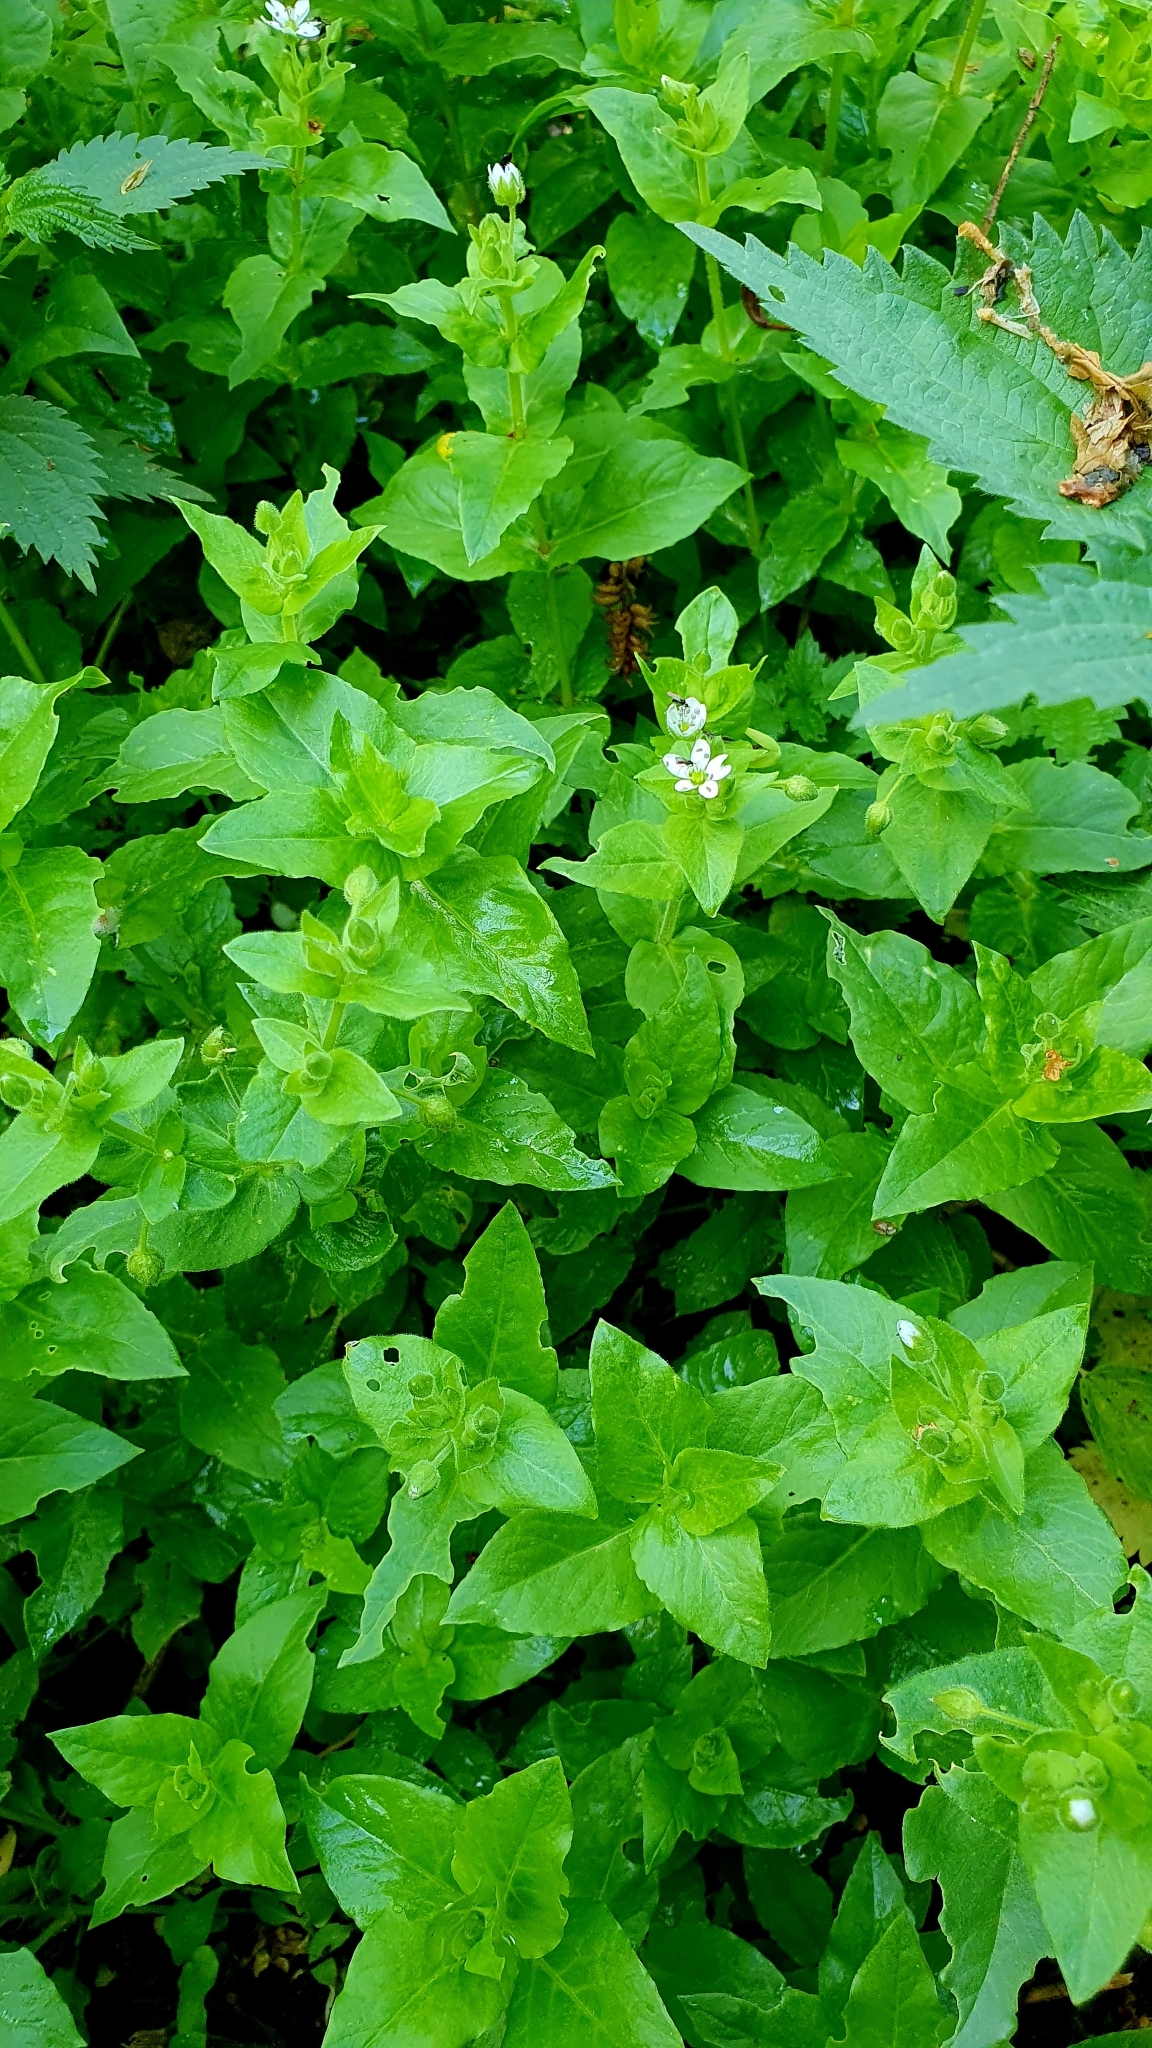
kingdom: Plantae
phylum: Tracheophyta
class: Magnoliopsida
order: Caryophyllales
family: Caryophyllaceae
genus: Stellaria
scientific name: Stellaria aquatica
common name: Water chickweed
